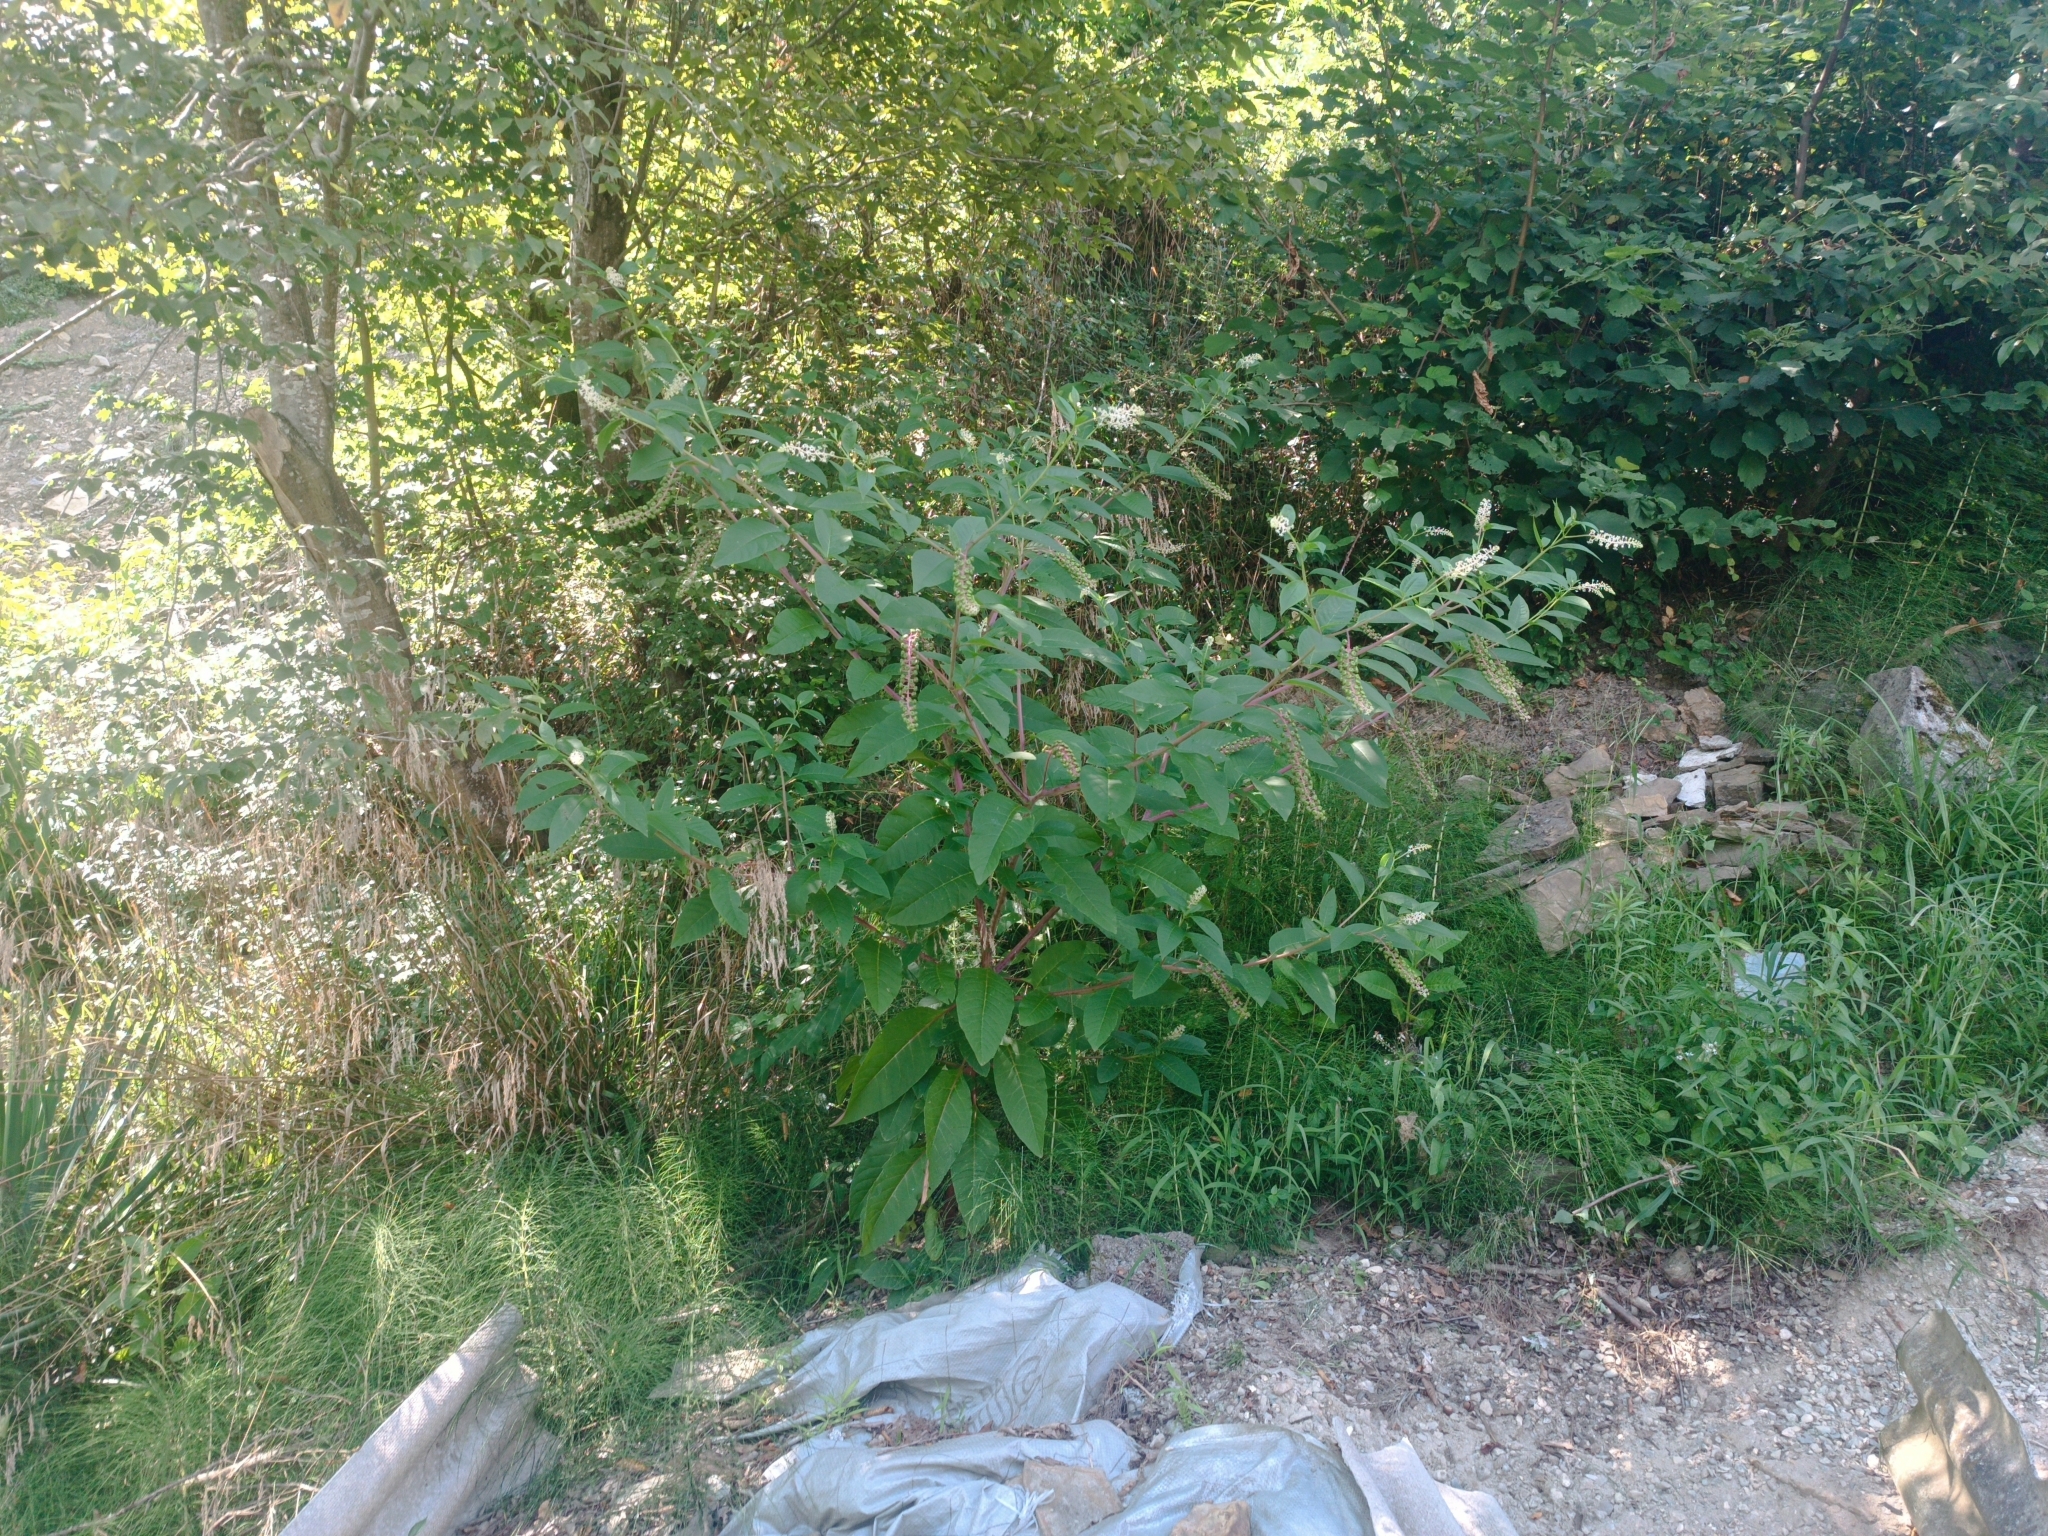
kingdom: Plantae
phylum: Tracheophyta
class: Magnoliopsida
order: Caryophyllales
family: Phytolaccaceae
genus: Phytolacca
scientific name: Phytolacca americana
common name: American pokeweed
